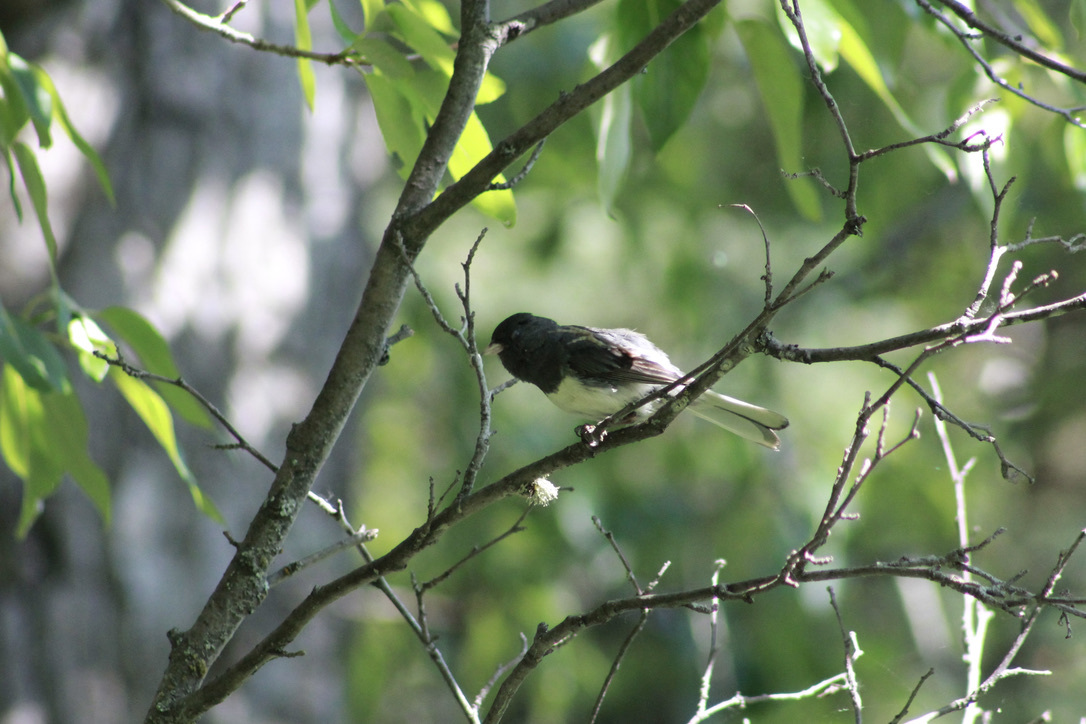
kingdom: Animalia
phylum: Chordata
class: Aves
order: Passeriformes
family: Passerellidae
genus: Junco
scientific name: Junco hyemalis
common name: Dark-eyed junco
